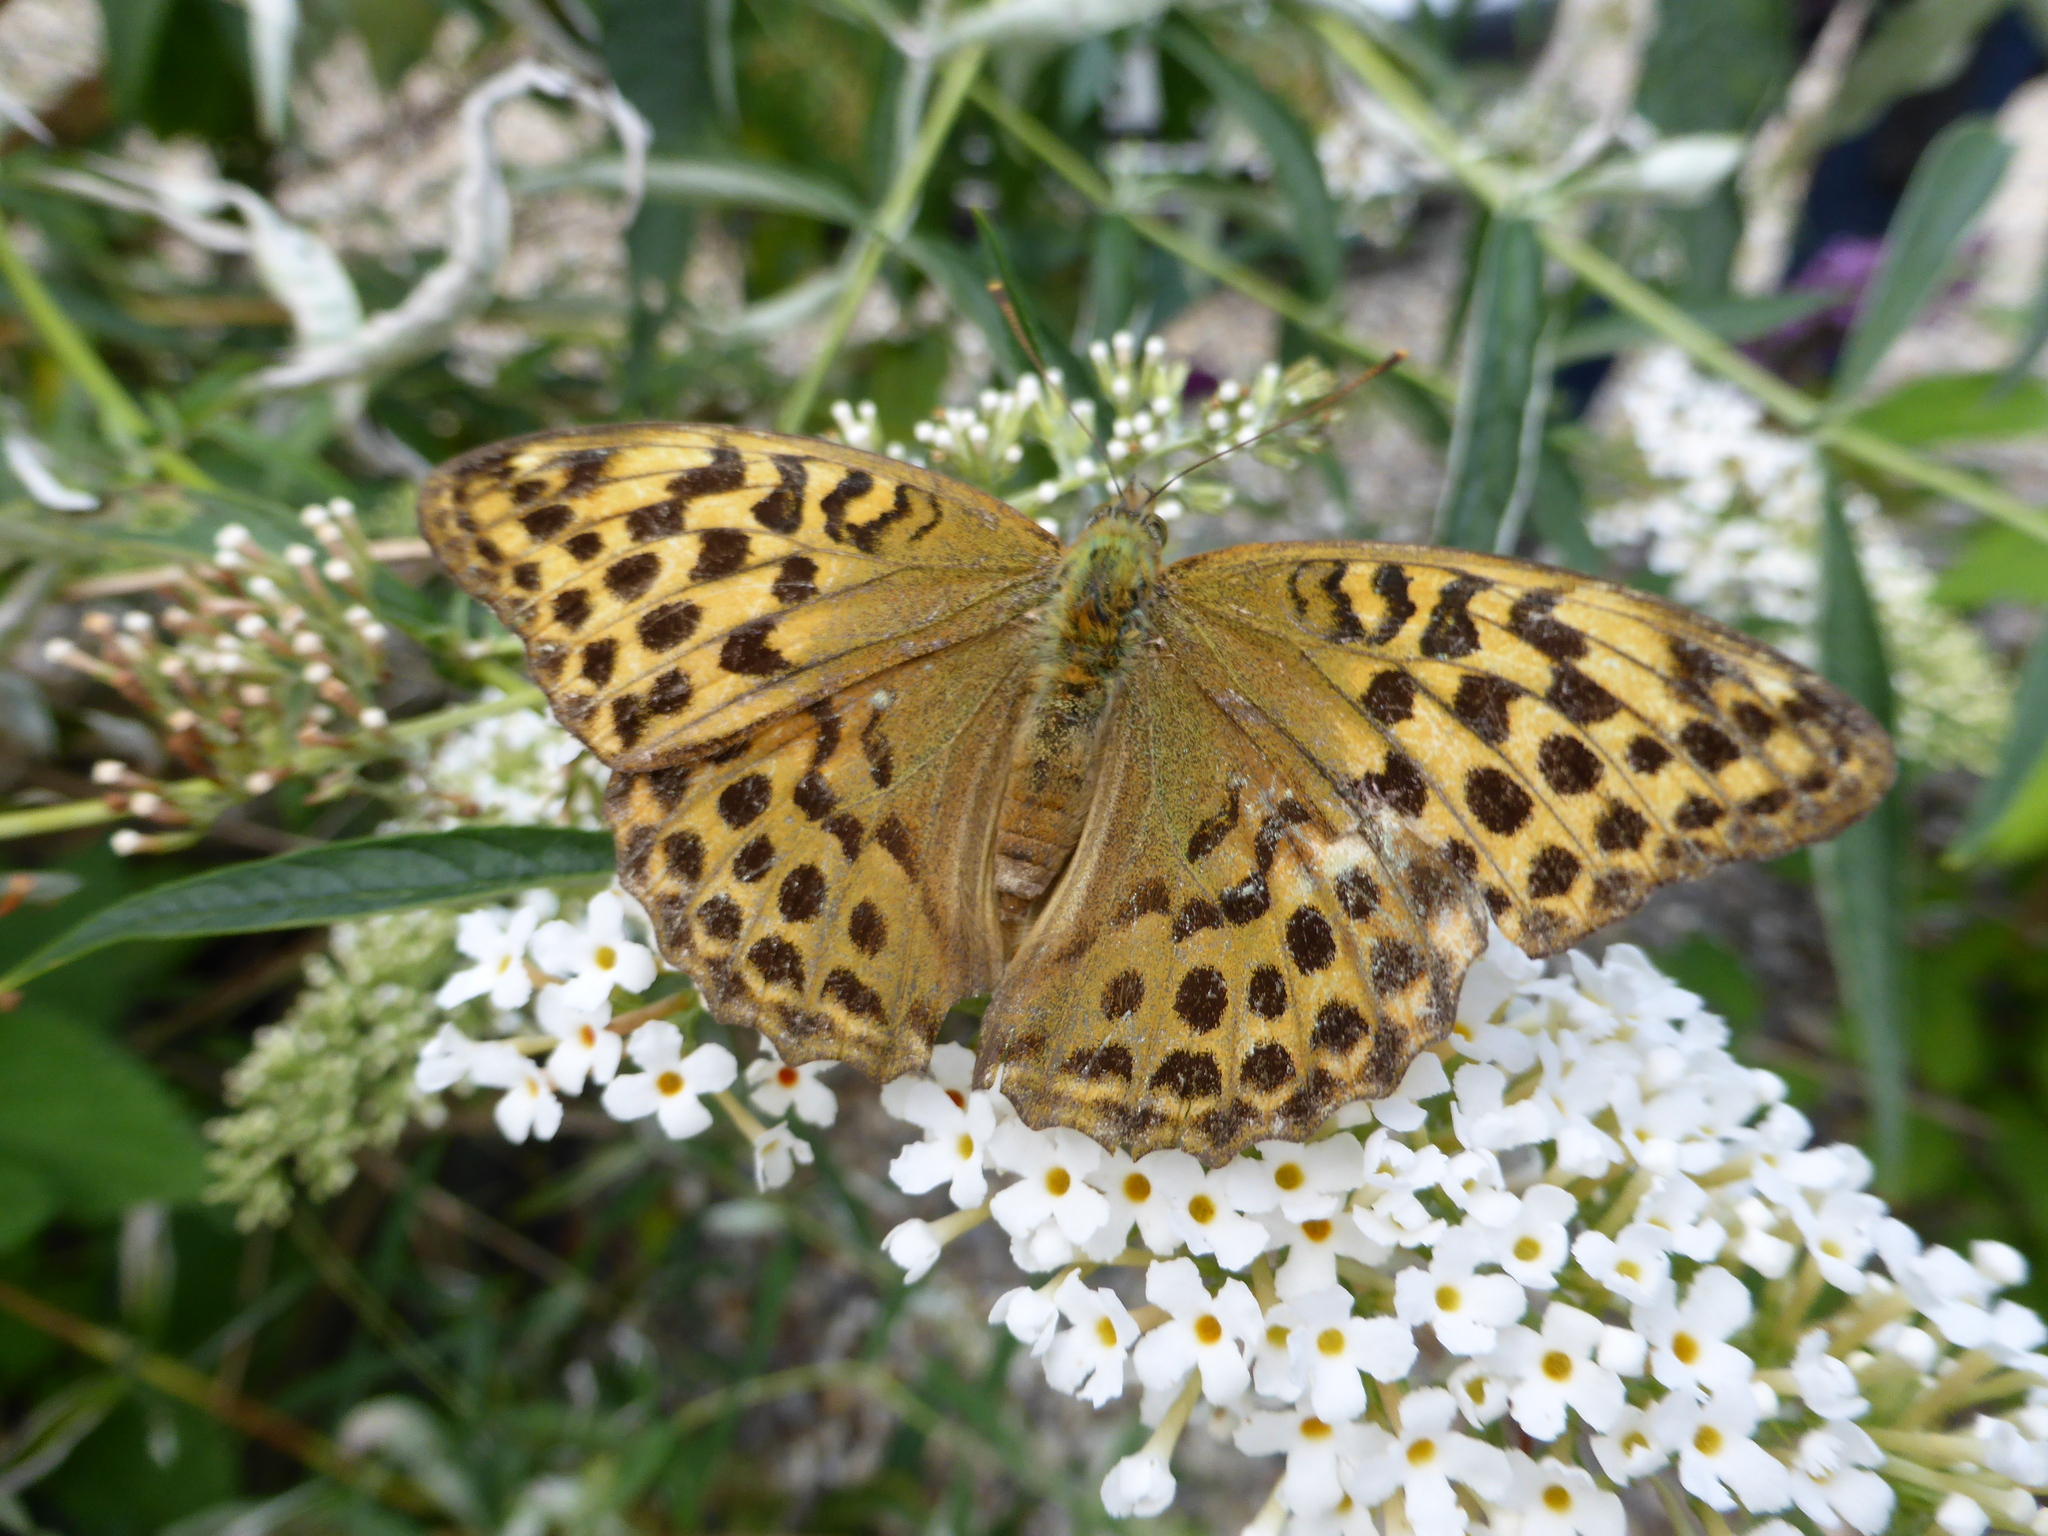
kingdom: Animalia
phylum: Arthropoda
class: Insecta
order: Lepidoptera
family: Nymphalidae
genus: Argynnis
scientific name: Argynnis paphia
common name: Silver-washed fritillary
